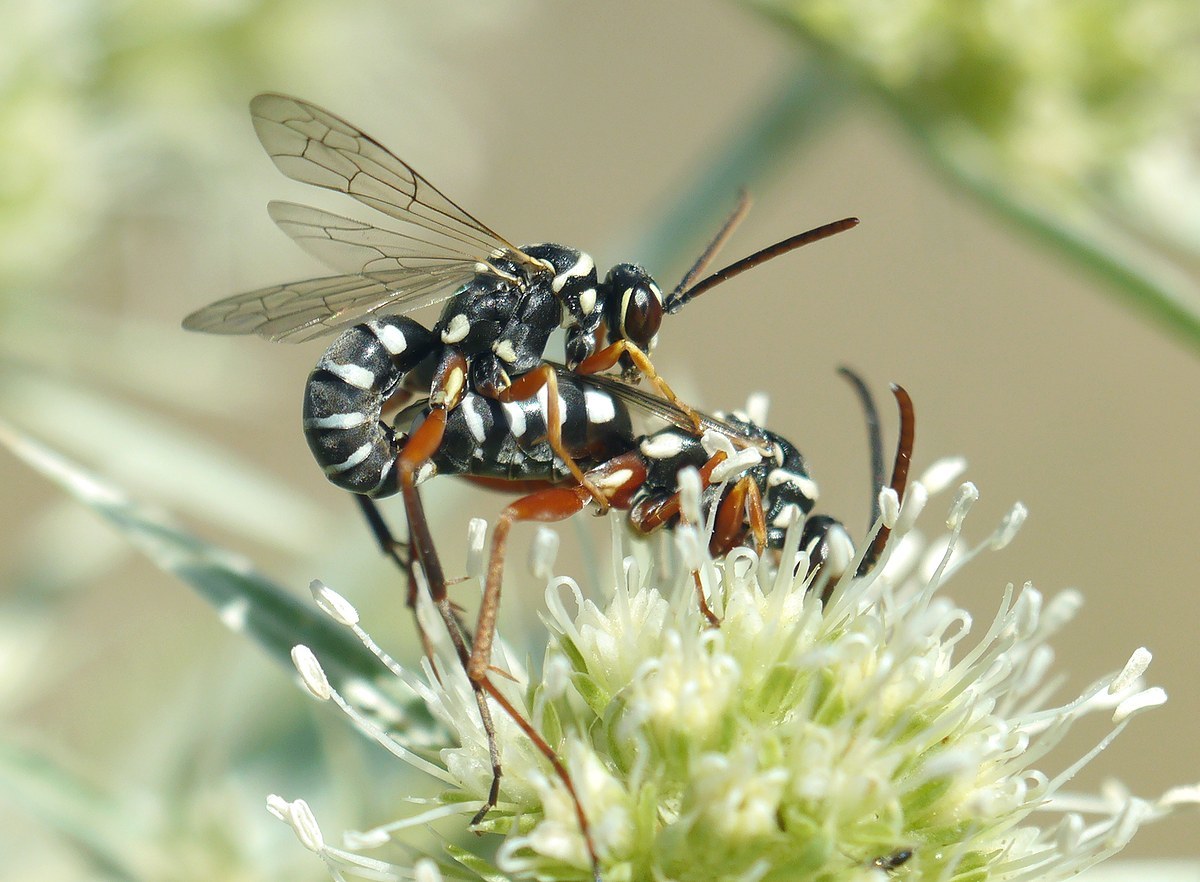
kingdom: Animalia
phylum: Arthropoda
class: Insecta
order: Hymenoptera
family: Pompilidae
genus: Ceropales
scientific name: Ceropales albicincta
